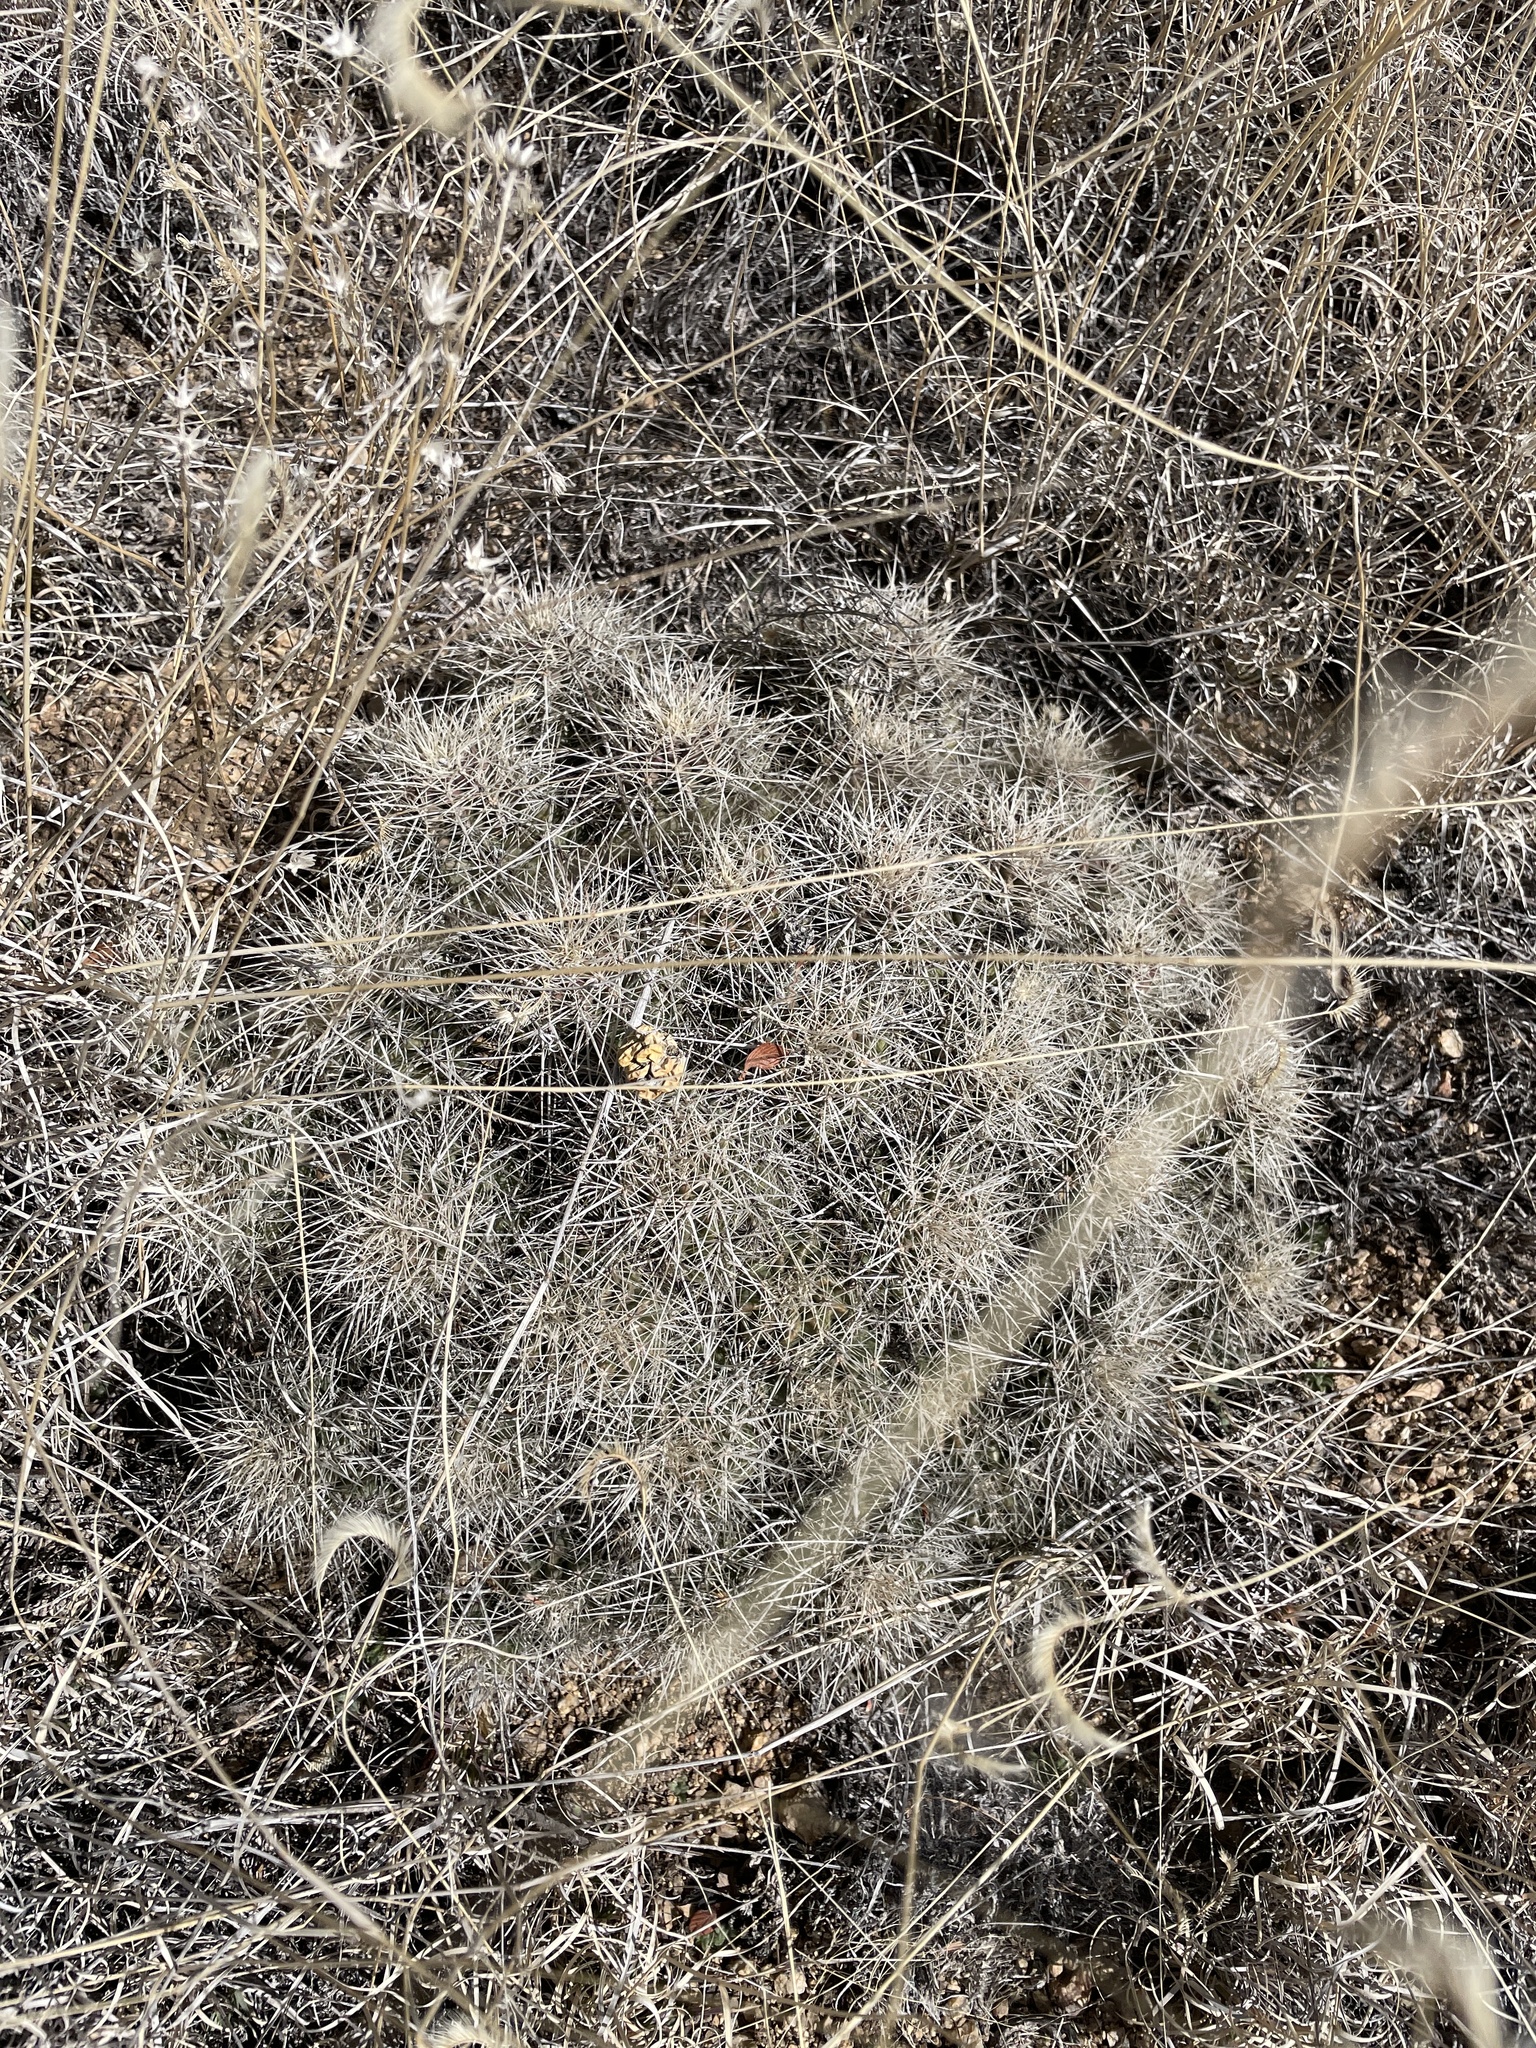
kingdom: Plantae
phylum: Tracheophyta
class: Magnoliopsida
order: Caryophyllales
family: Cactaceae
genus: Echinocereus
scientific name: Echinocereus coccineus
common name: Scarlet hedgehog cactus
